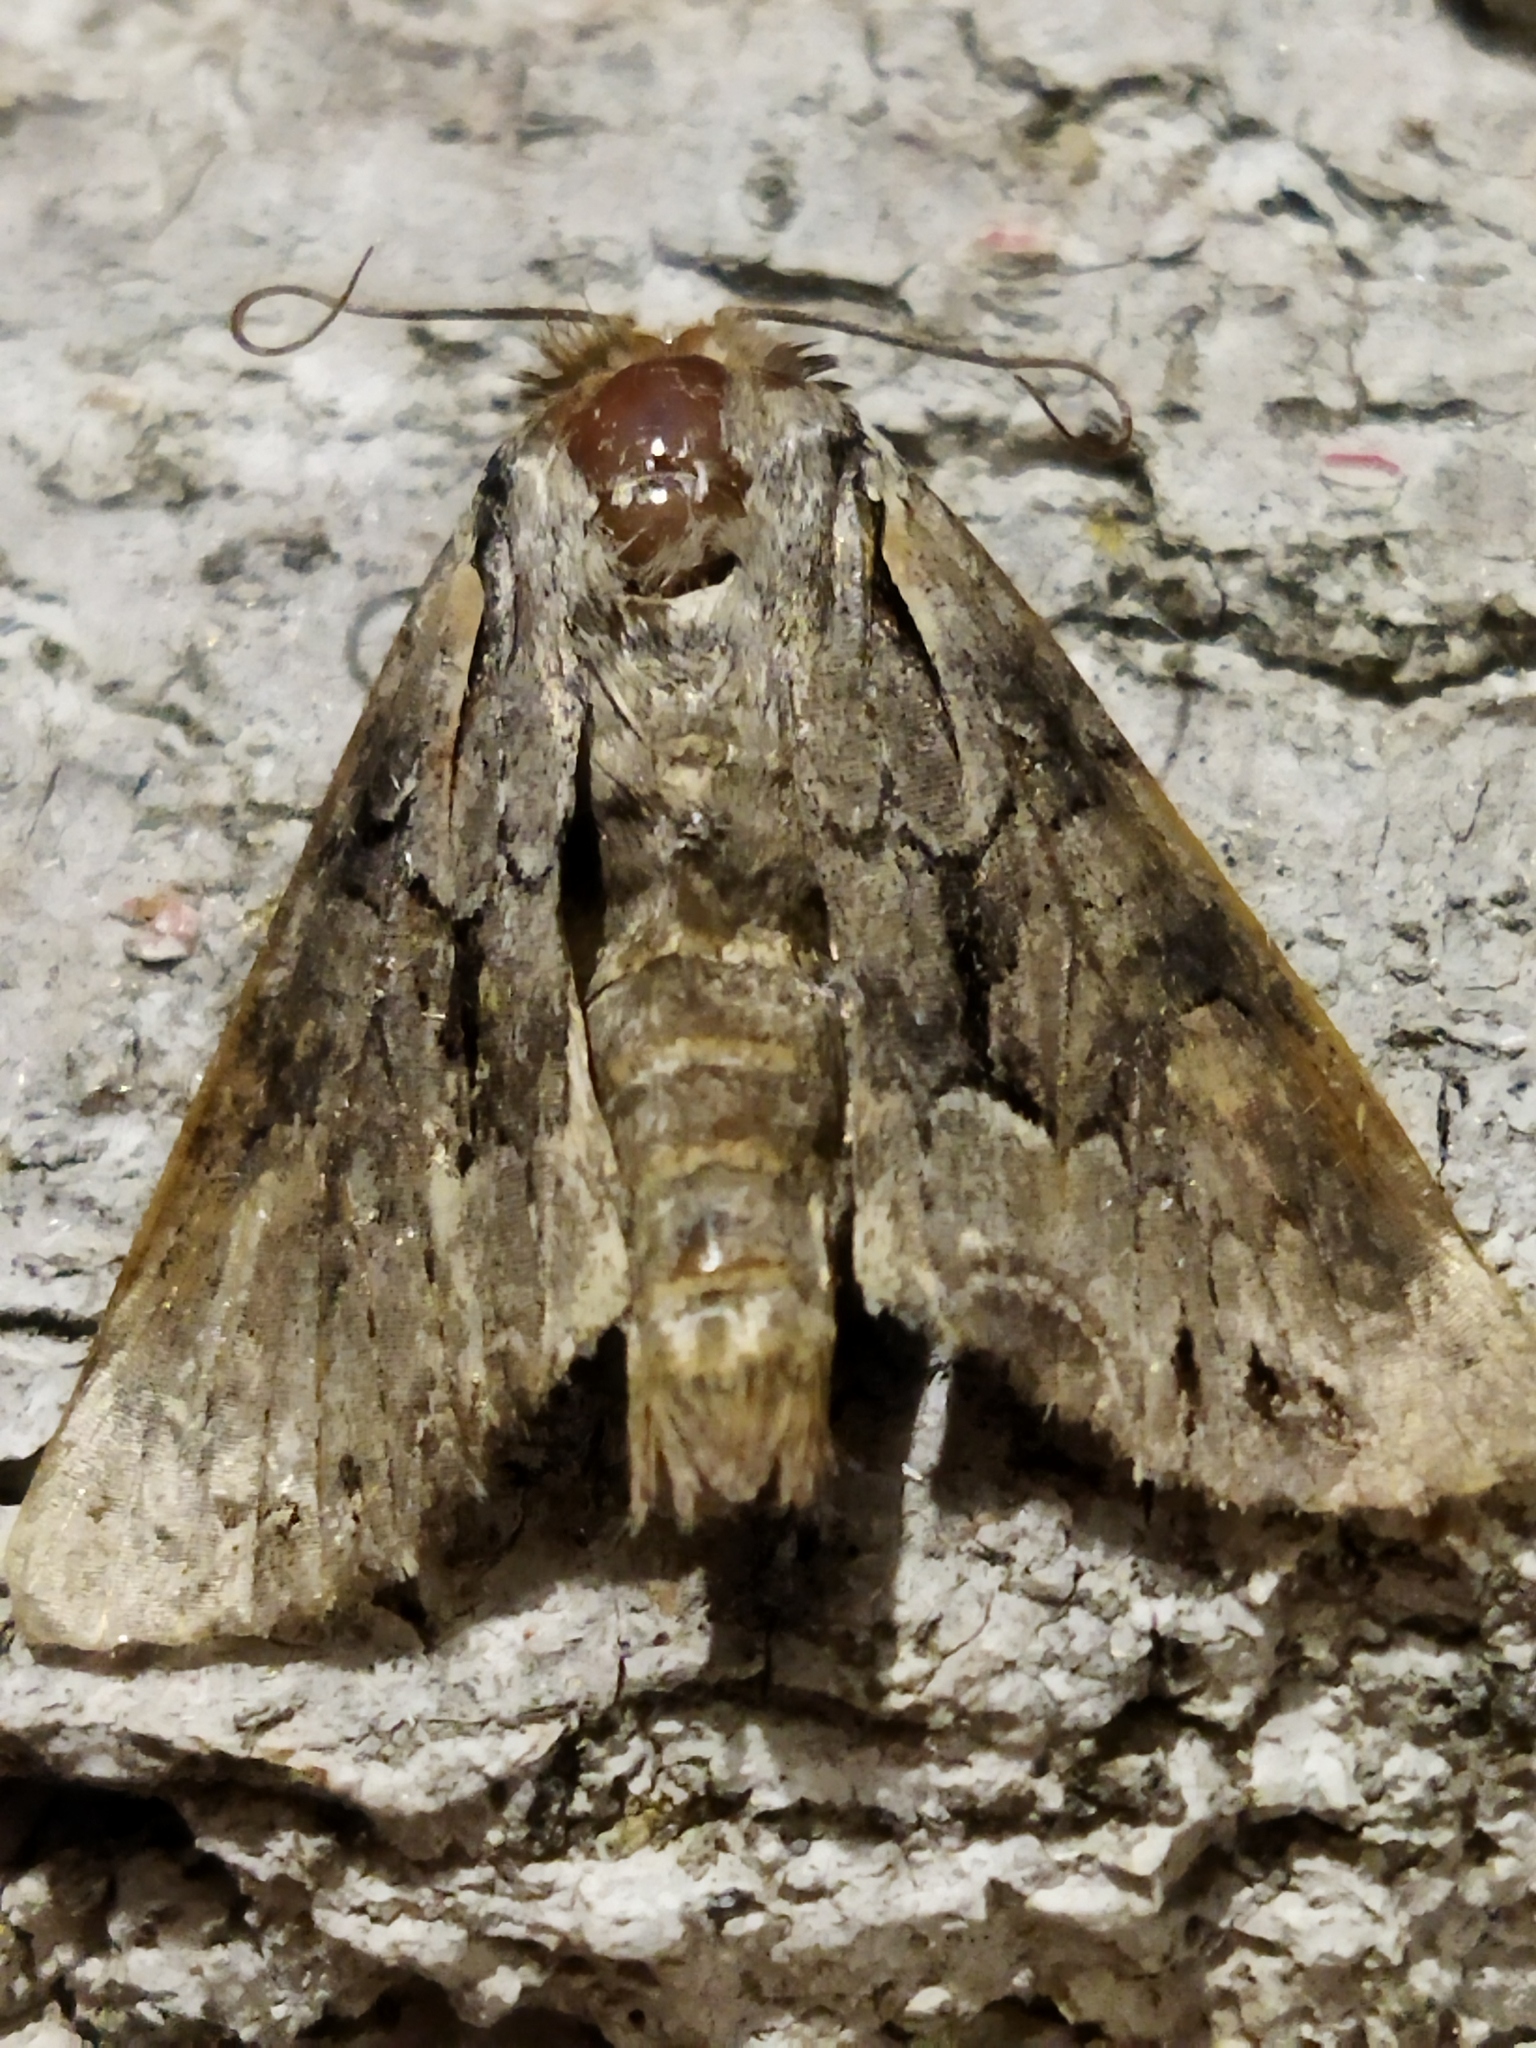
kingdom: Animalia
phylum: Arthropoda
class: Insecta
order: Lepidoptera
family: Noctuidae
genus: Lacanobia
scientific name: Lacanobia w-latinum
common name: Light brocade
